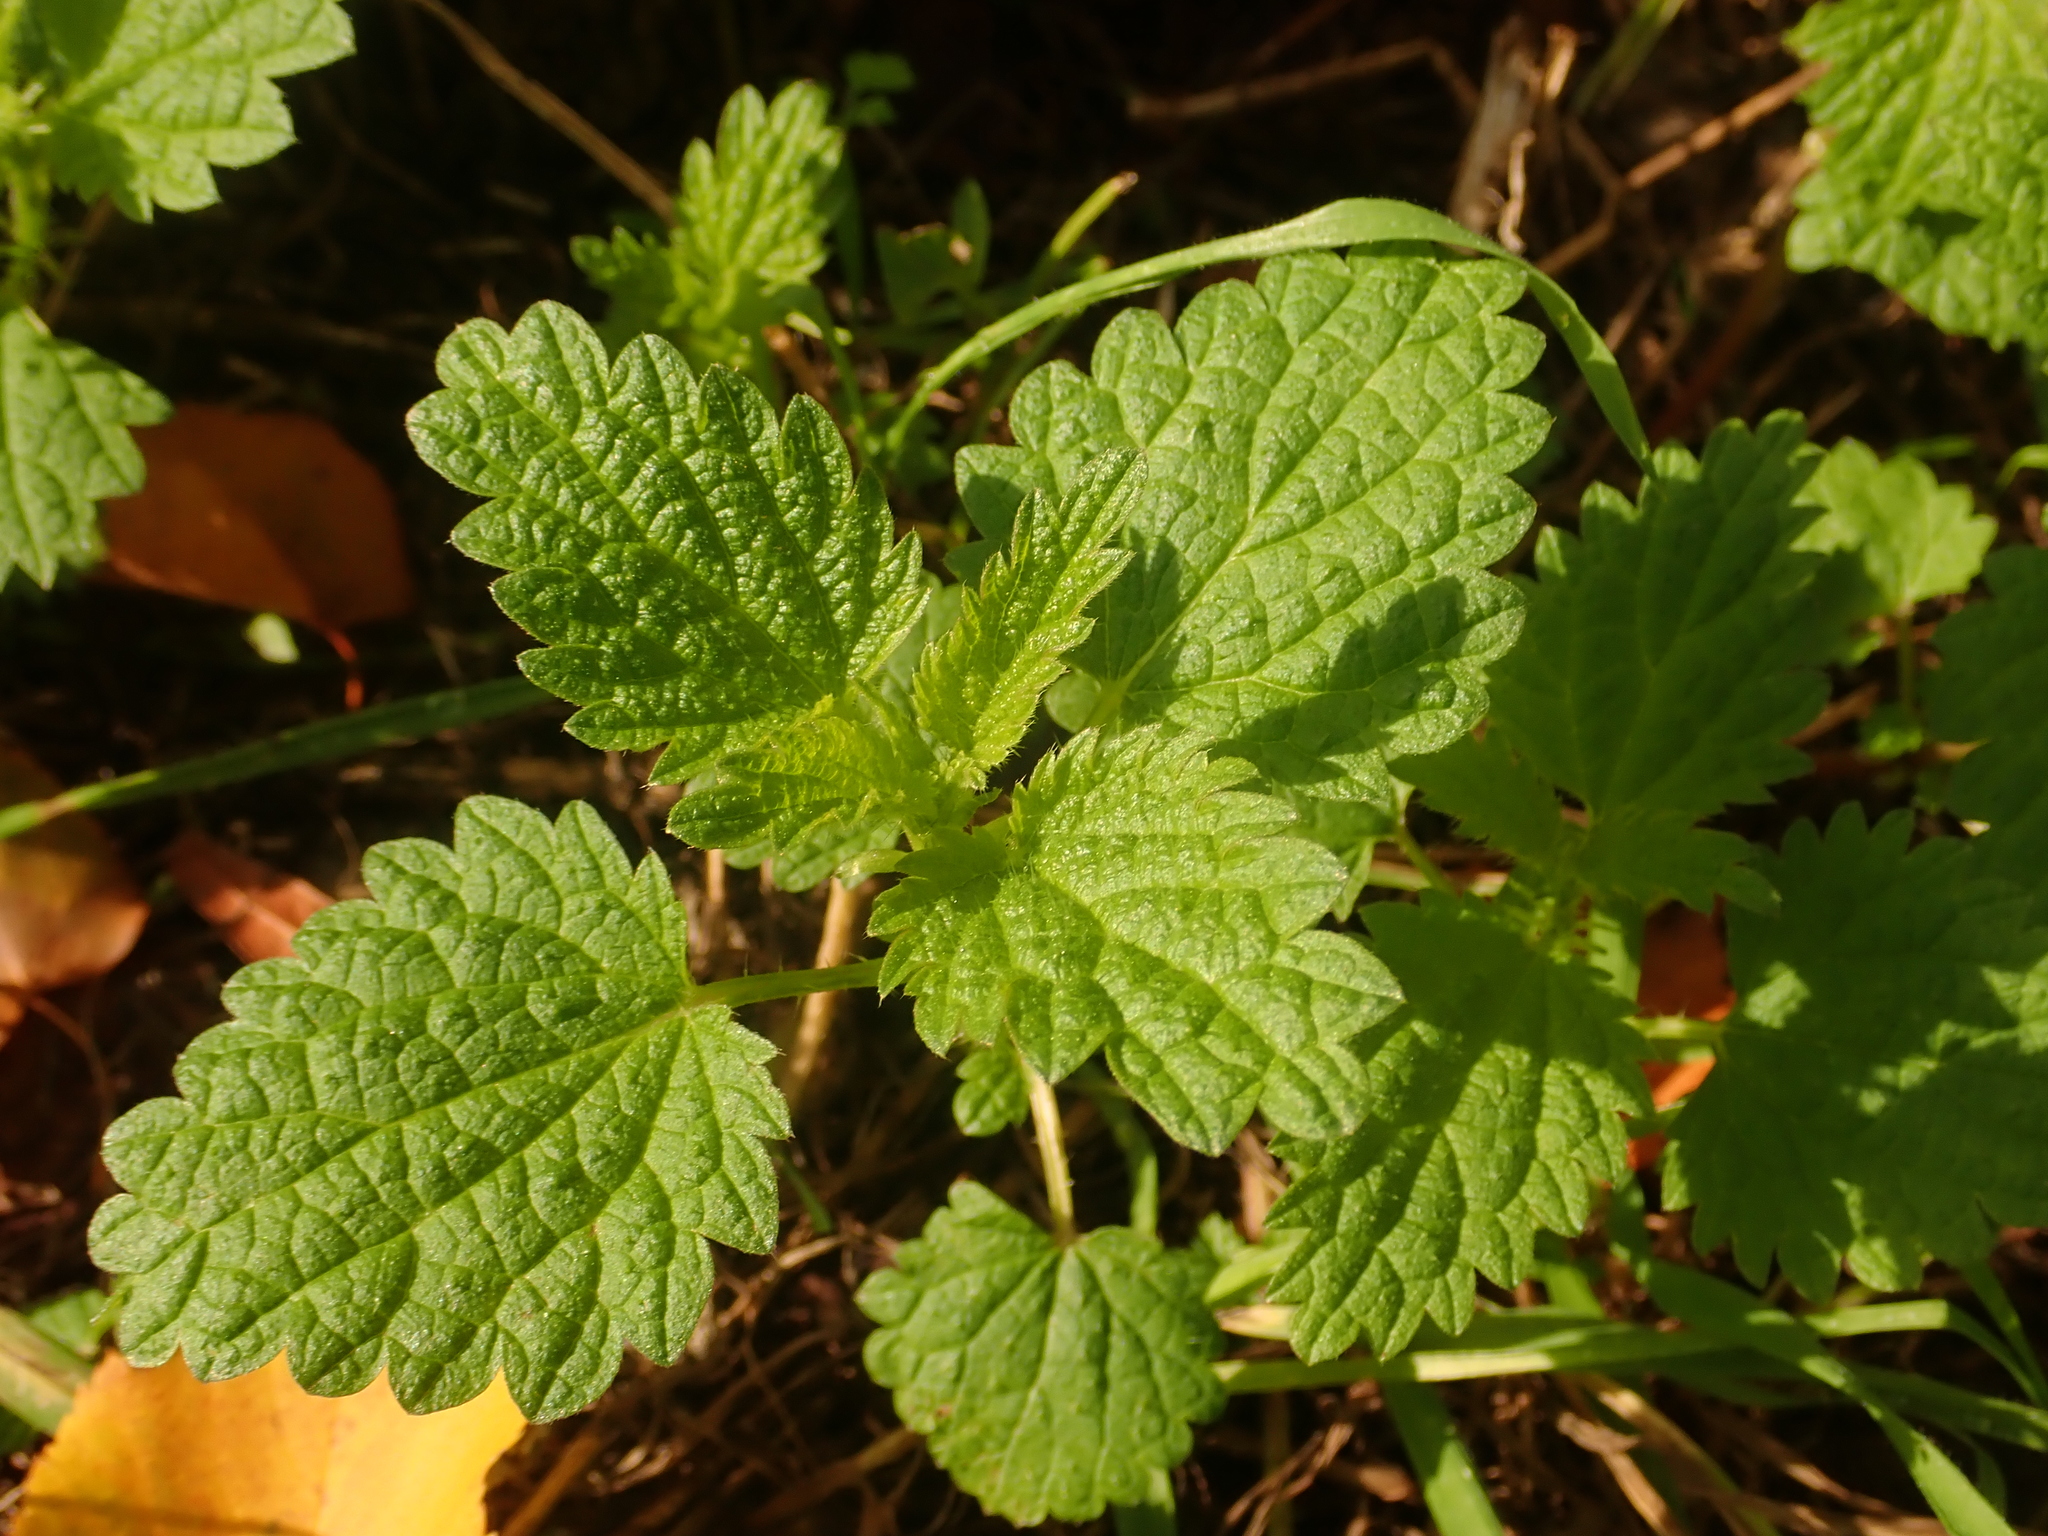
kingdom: Plantae
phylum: Tracheophyta
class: Magnoliopsida
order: Rosales
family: Urticaceae
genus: Urtica
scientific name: Urtica dioica
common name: Common nettle
